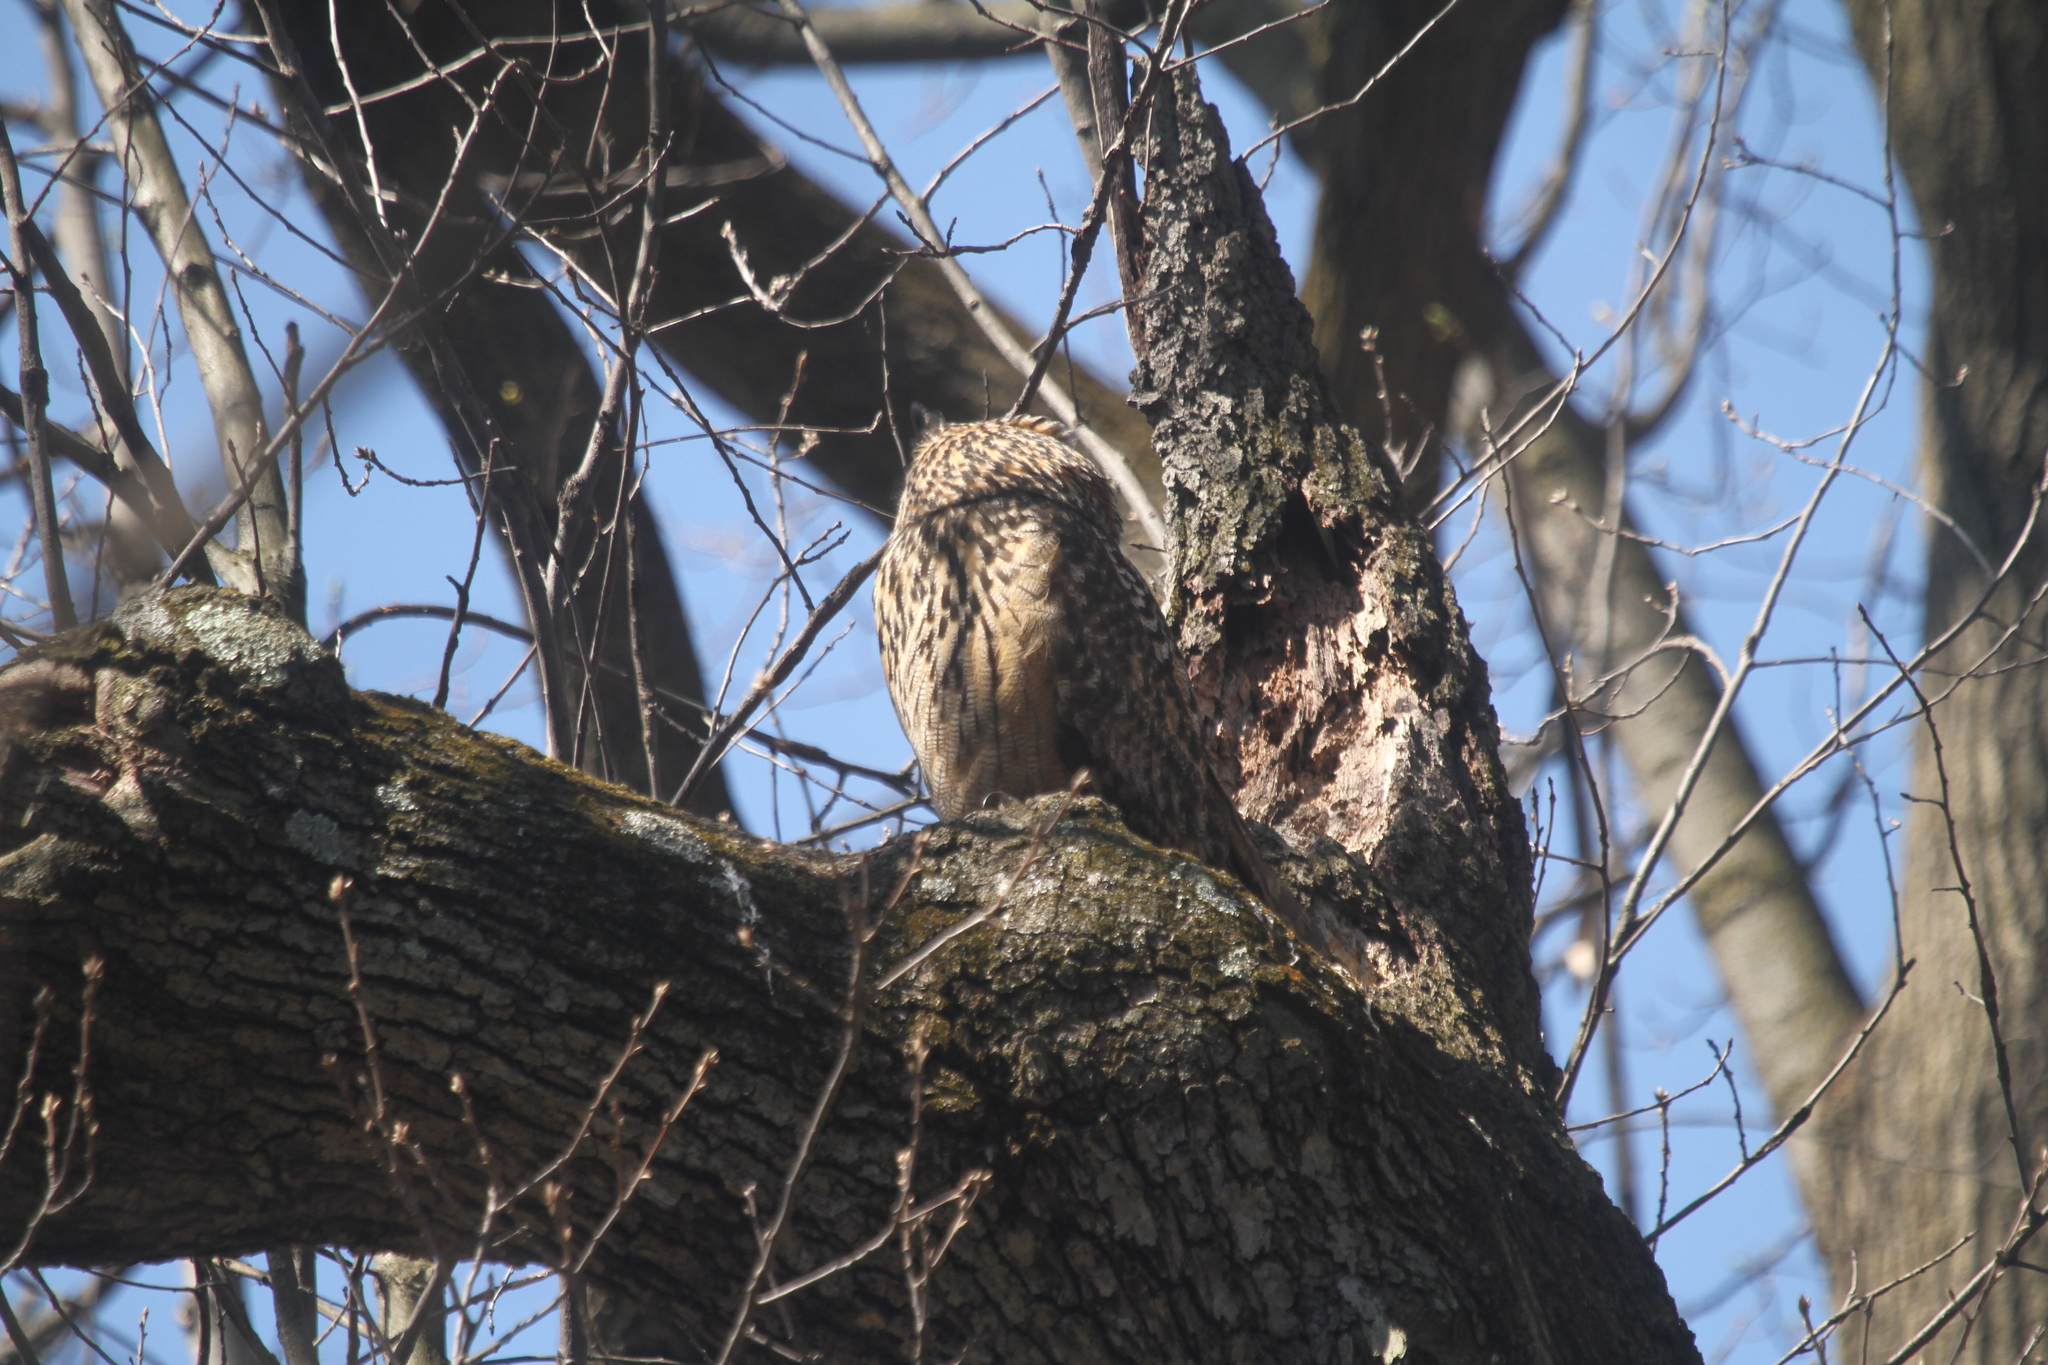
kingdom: Animalia
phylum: Chordata
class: Aves
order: Strigiformes
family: Strigidae
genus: Bubo
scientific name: Bubo bubo
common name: Eurasian eagle-owl
